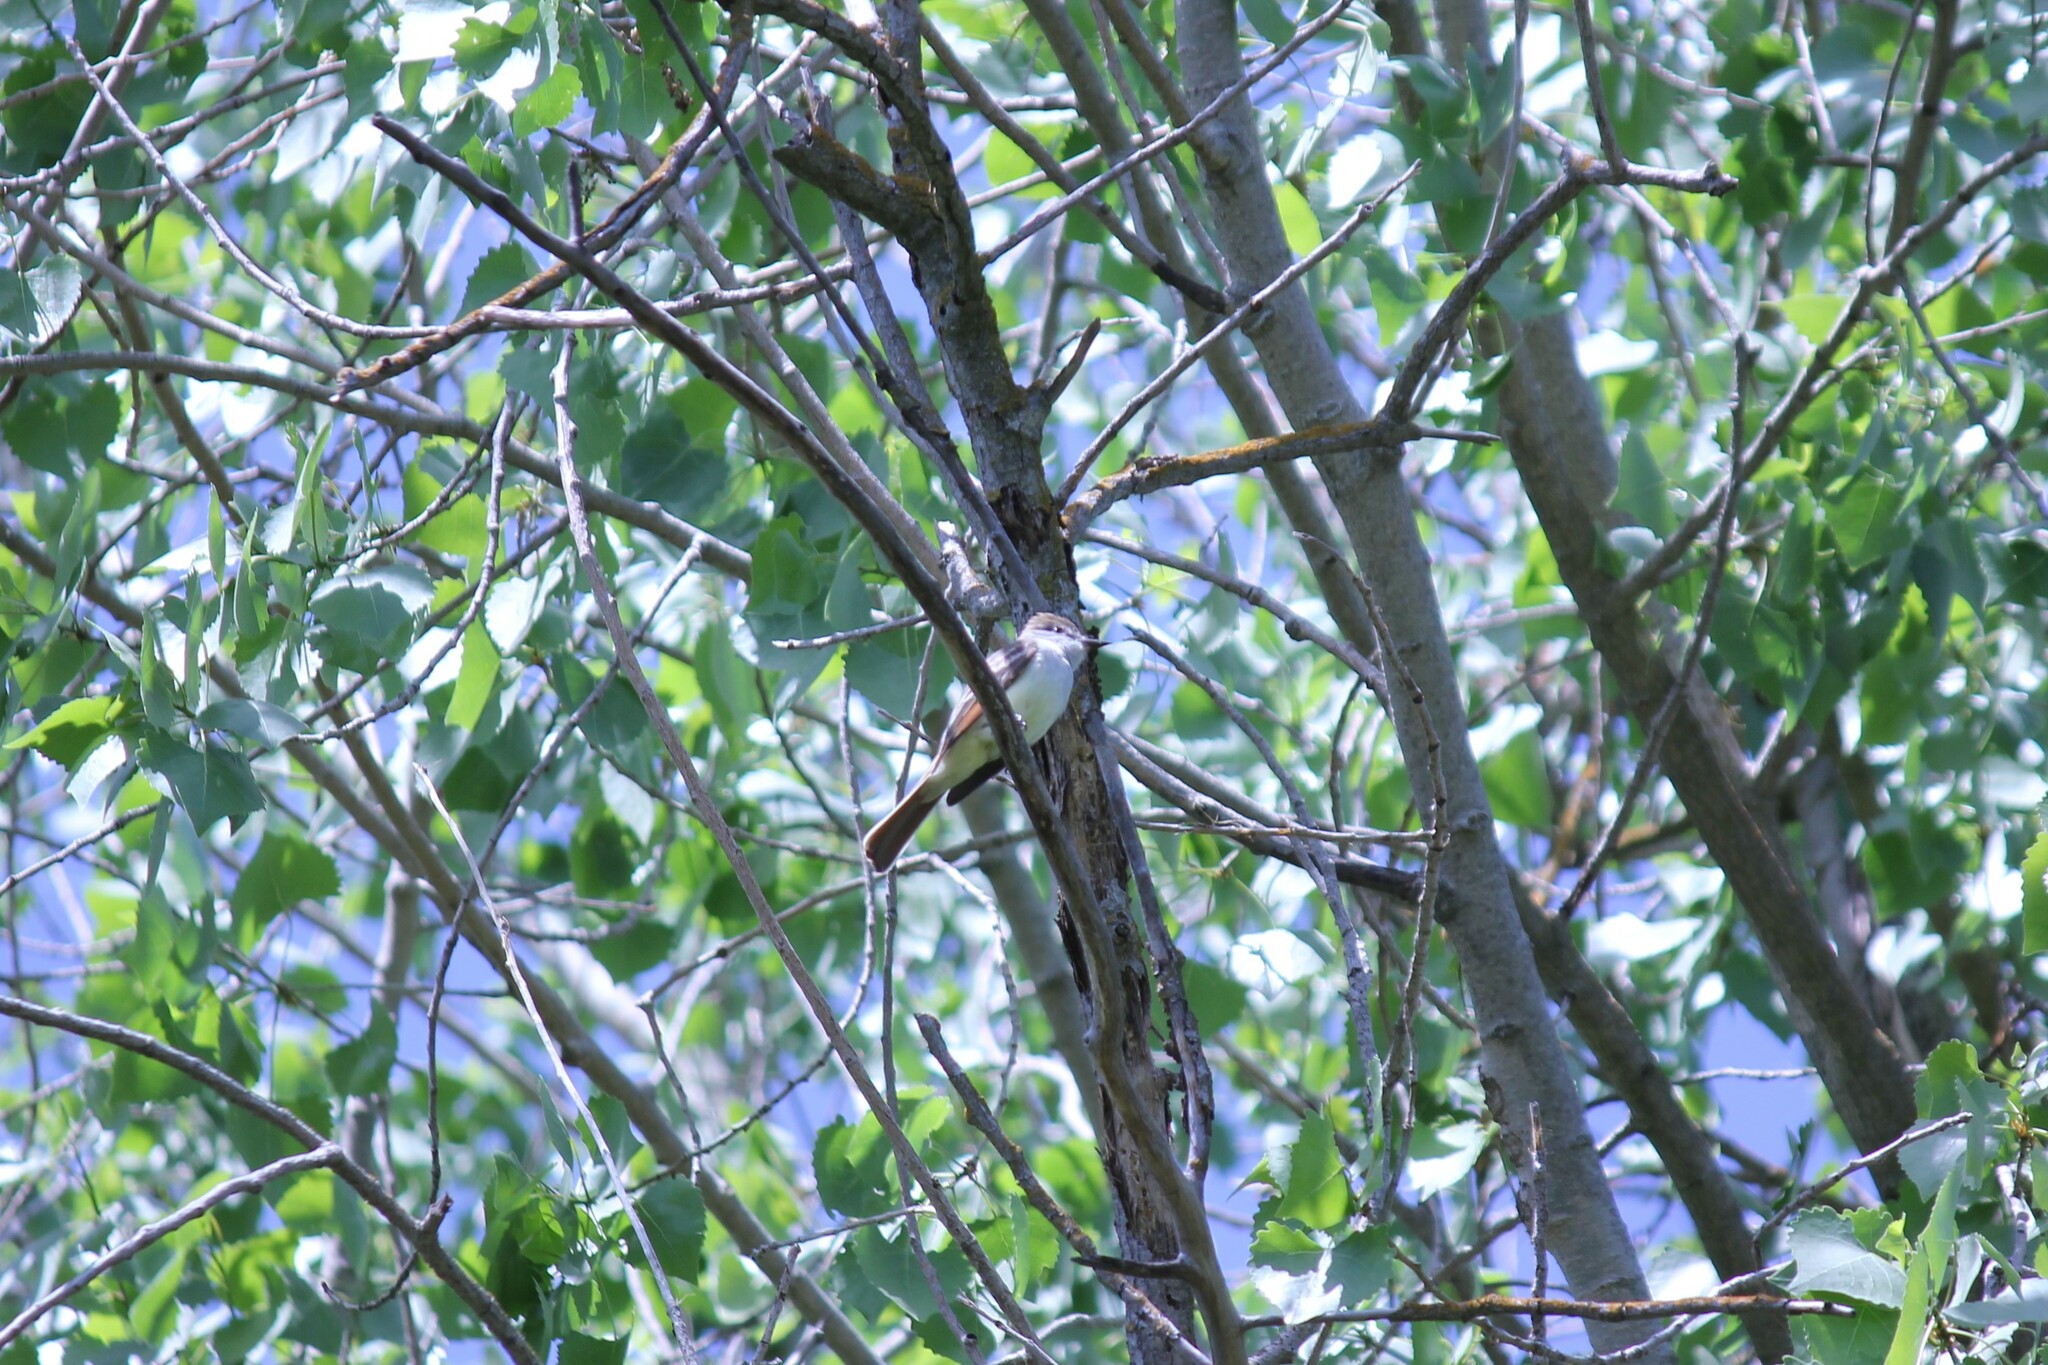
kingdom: Animalia
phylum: Chordata
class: Aves
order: Passeriformes
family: Tyrannidae
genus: Myiarchus
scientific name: Myiarchus cinerascens
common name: Ash-throated flycatcher
